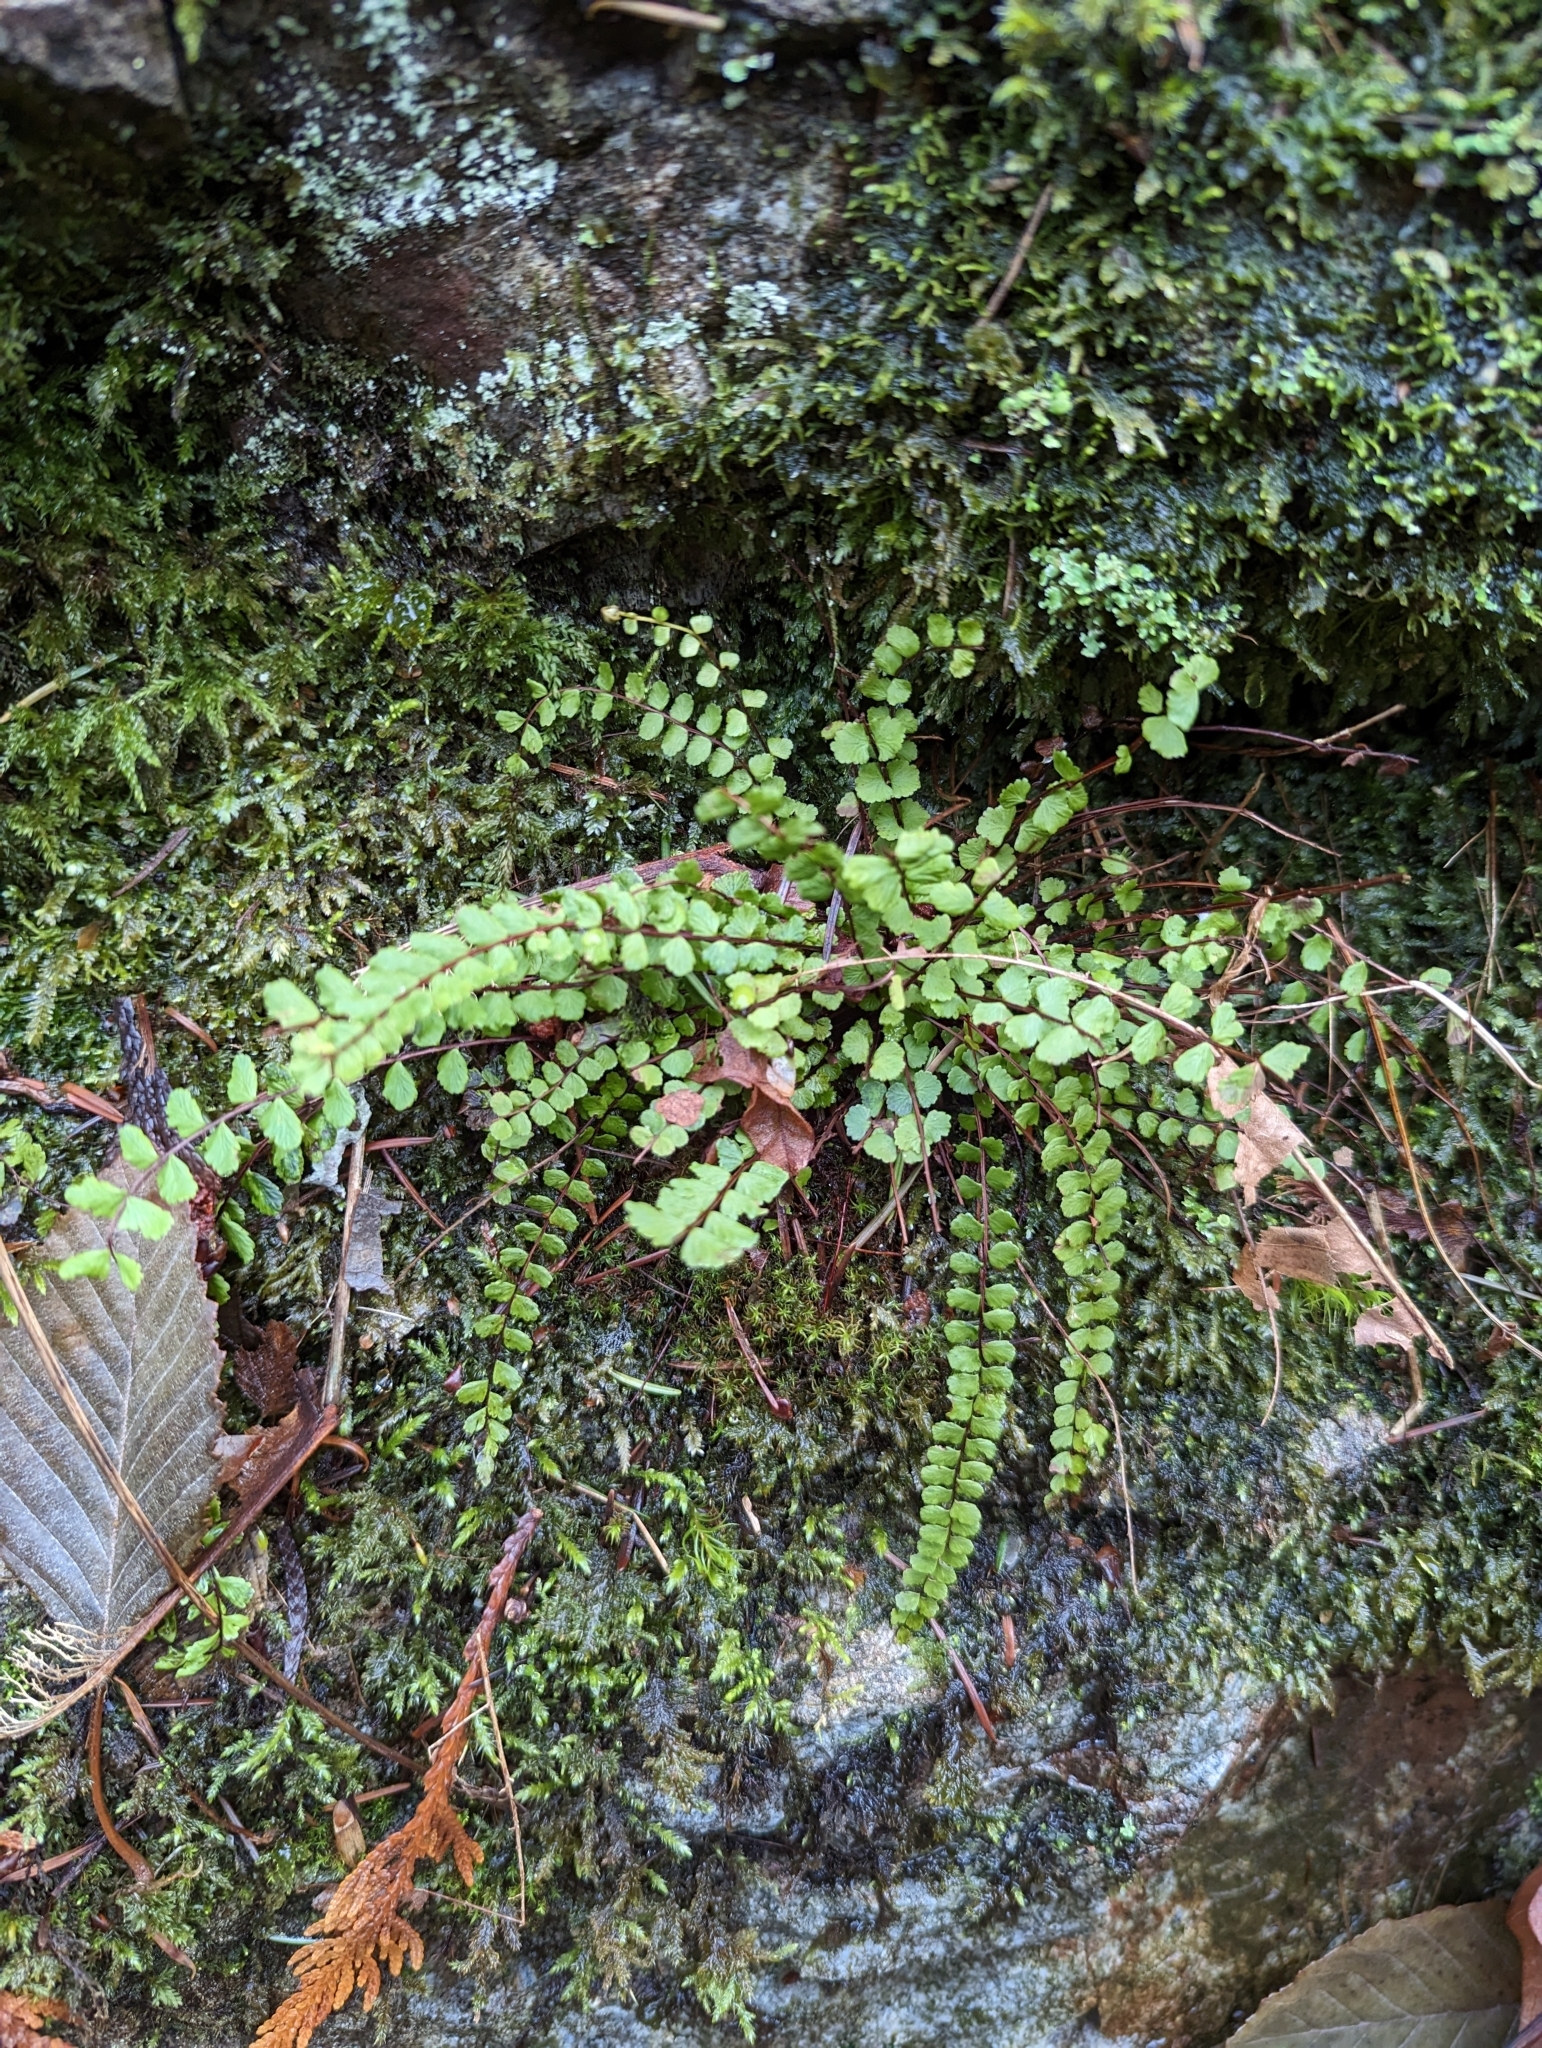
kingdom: Plantae
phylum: Tracheophyta
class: Polypodiopsida
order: Polypodiales
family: Aspleniaceae
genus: Asplenium
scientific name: Asplenium trichomanes
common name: Maidenhair spleenwort
